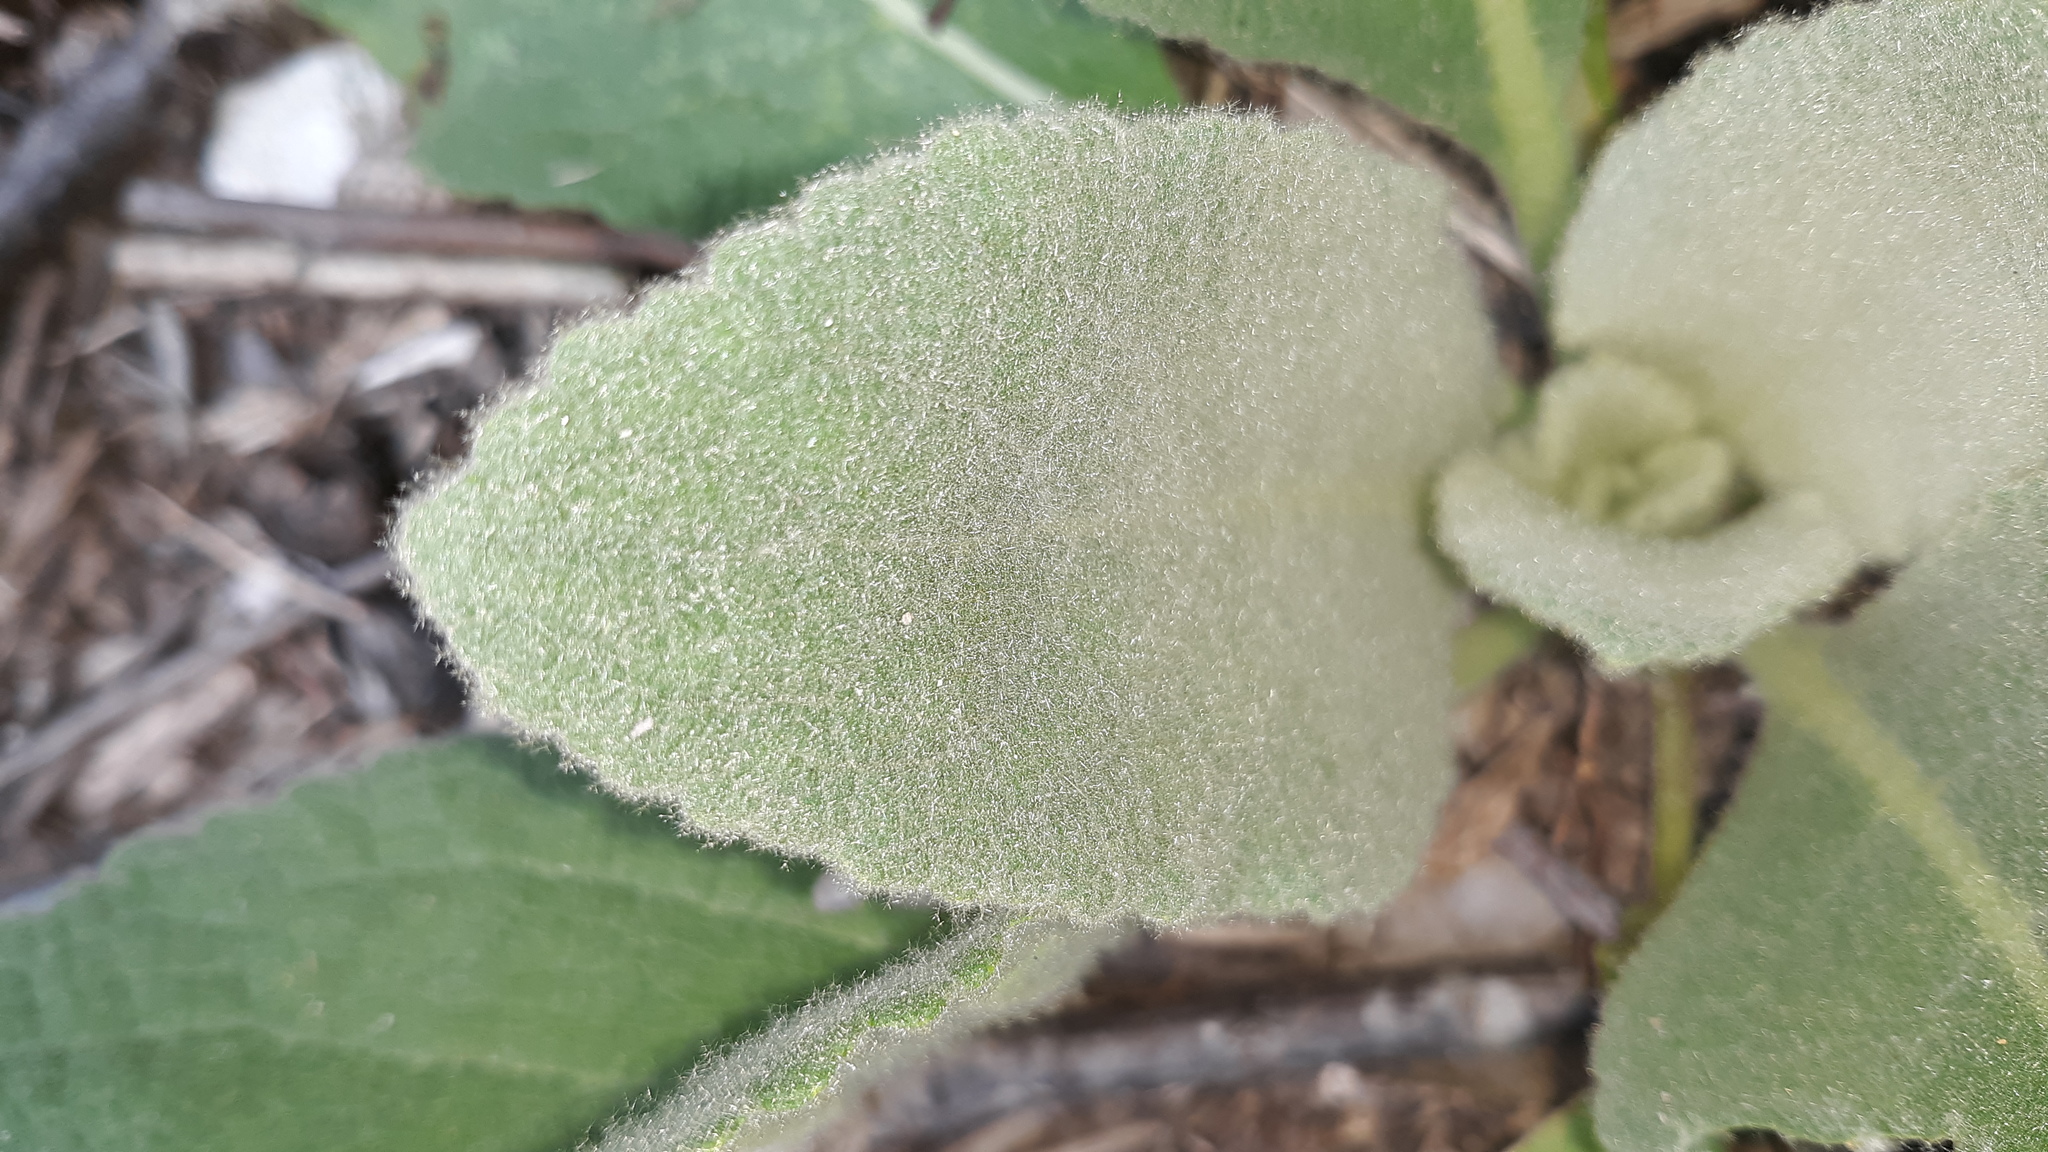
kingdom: Plantae
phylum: Tracheophyta
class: Magnoliopsida
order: Lamiales
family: Scrophulariaceae
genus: Verbascum
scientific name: Verbascum thapsus
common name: Common mullein
